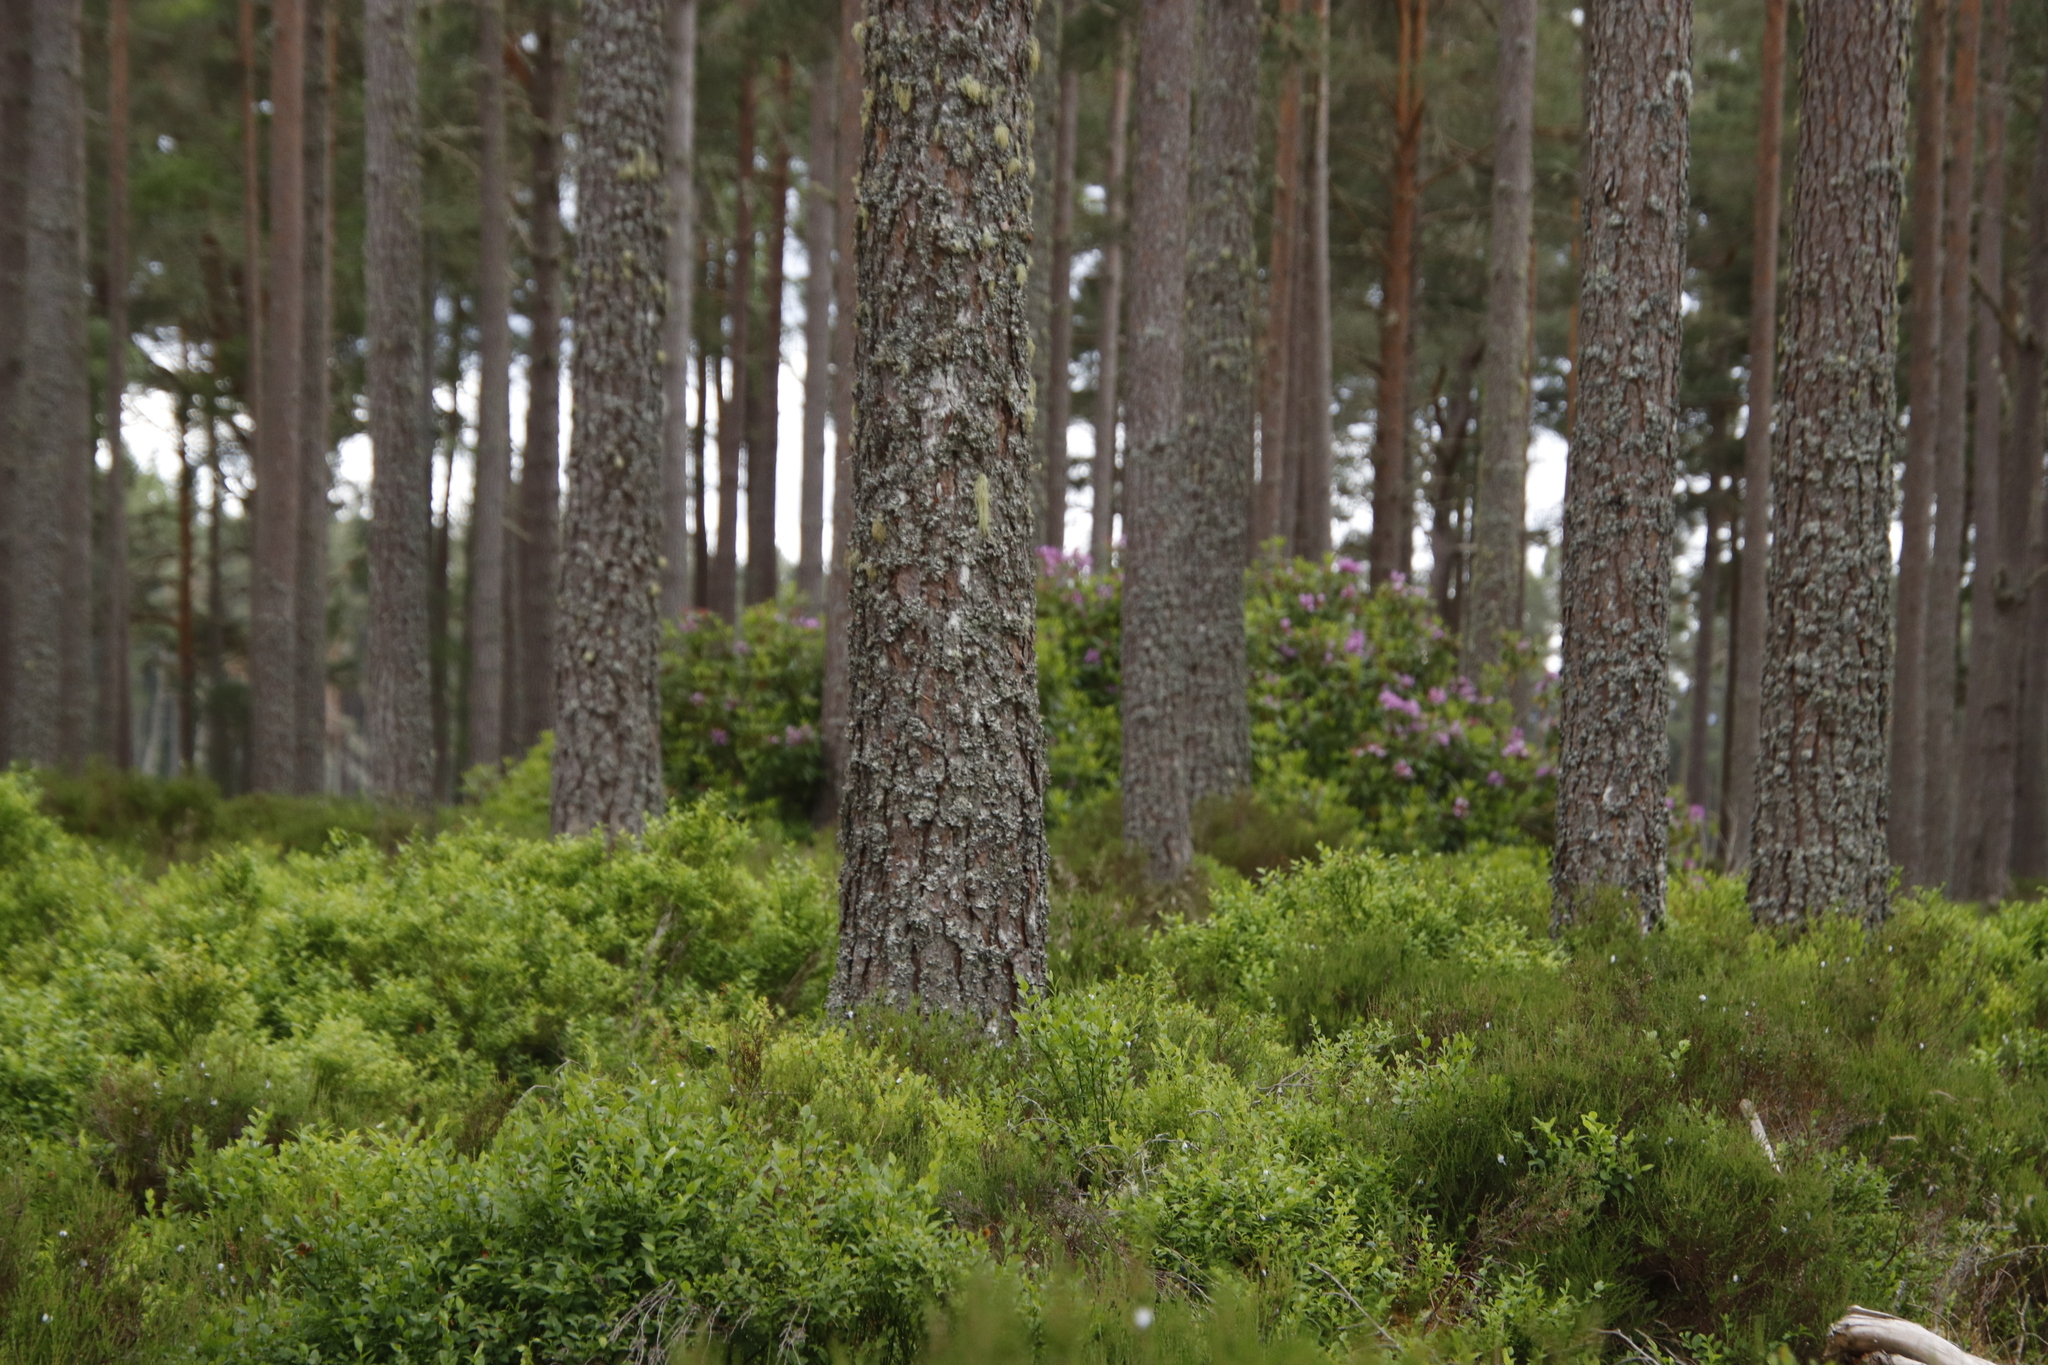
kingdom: Plantae
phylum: Tracheophyta
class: Magnoliopsida
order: Ericales
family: Ericaceae
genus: Vaccinium
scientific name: Vaccinium myrtillus
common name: Bilberry
